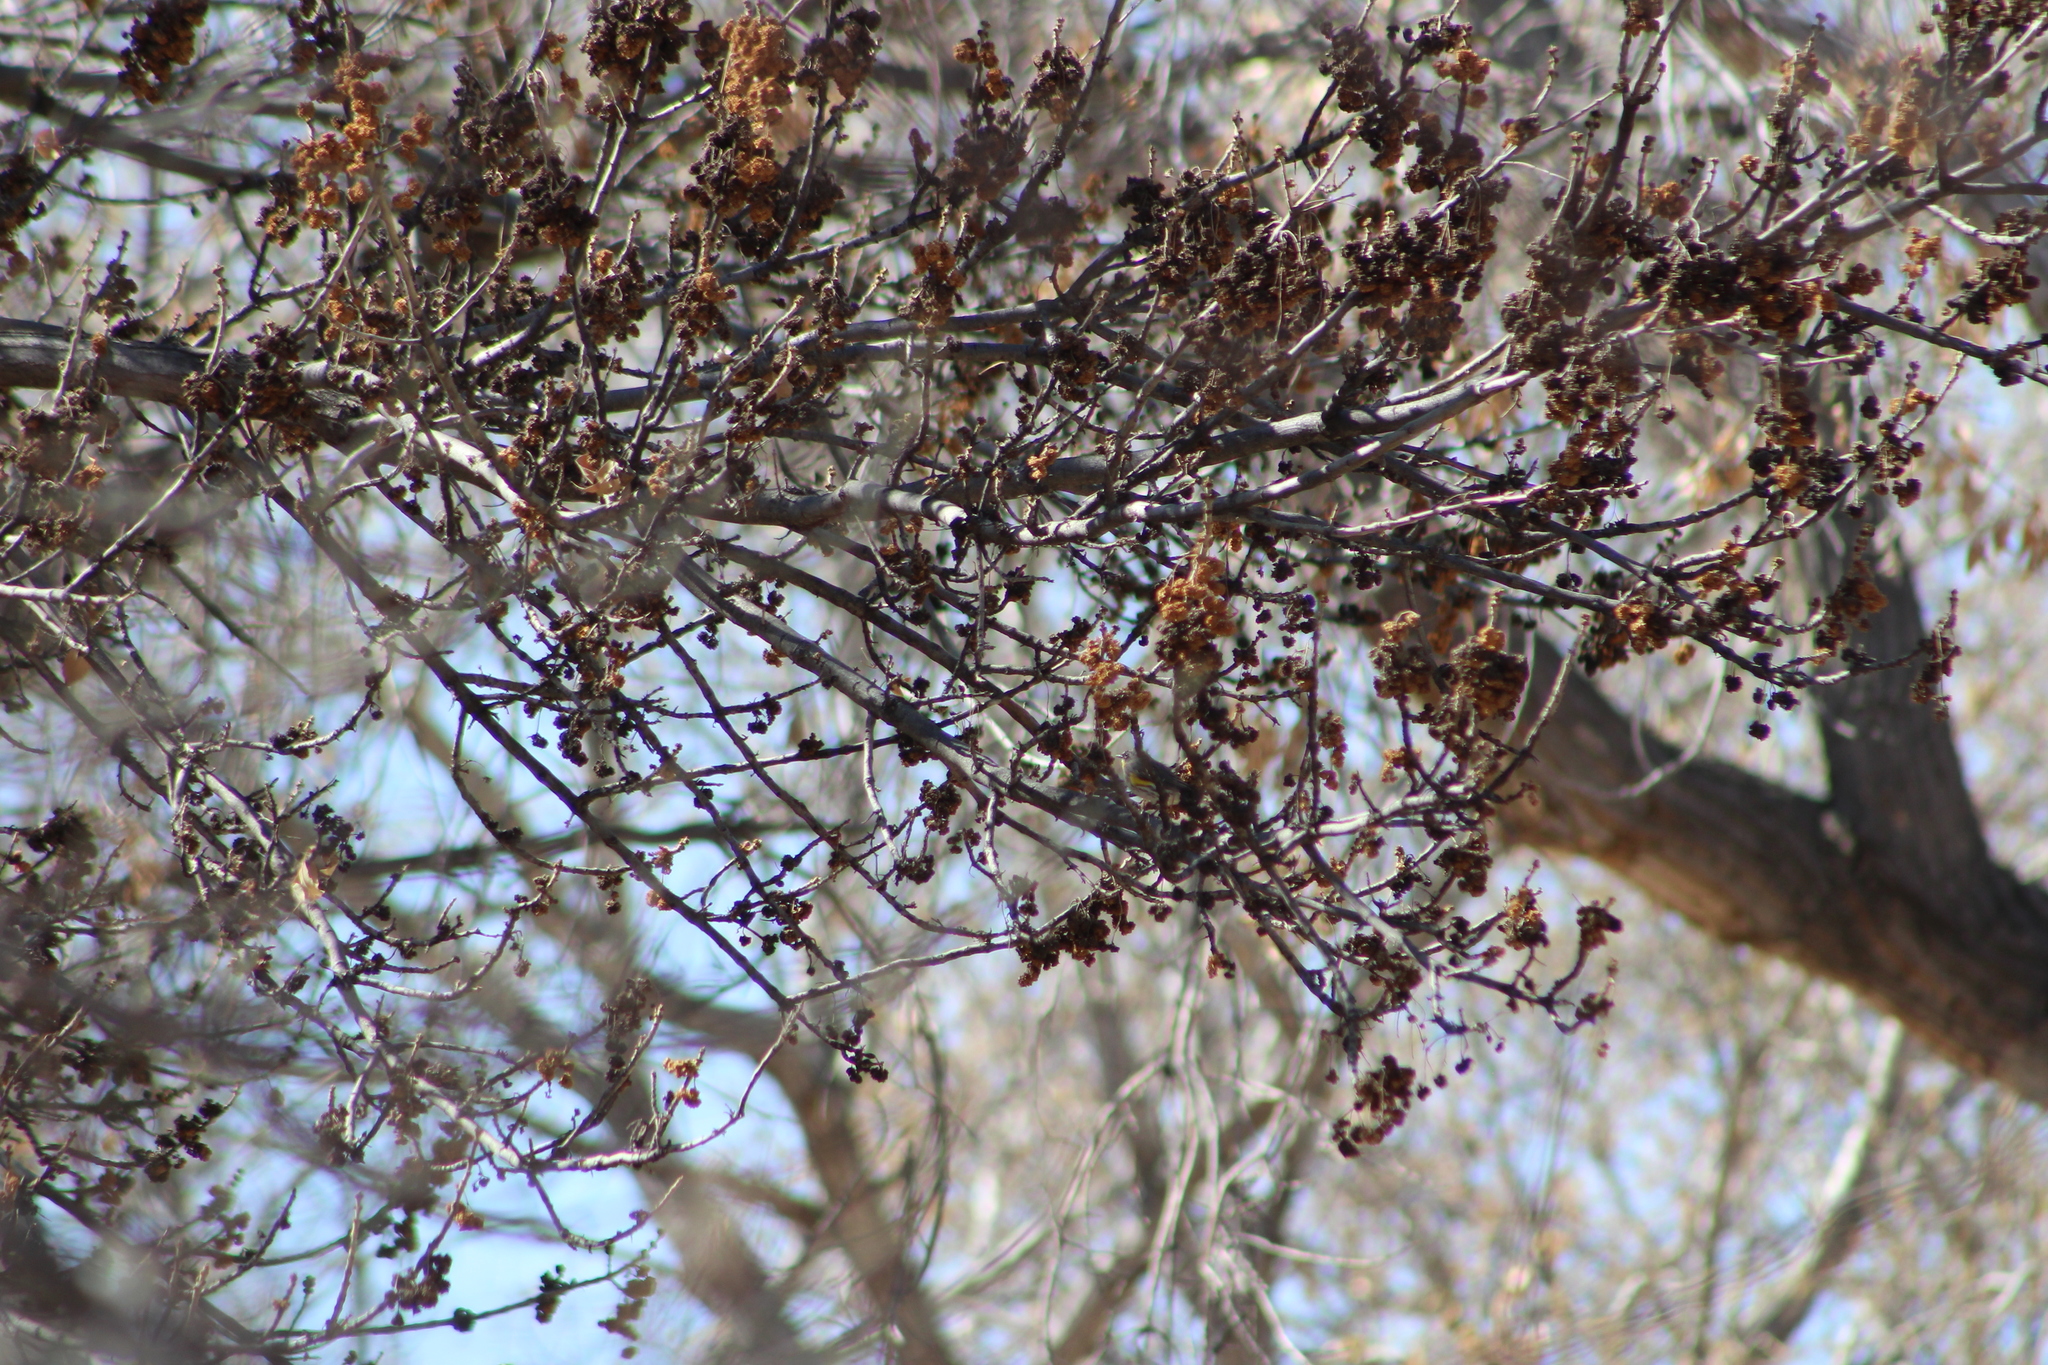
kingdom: Animalia
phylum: Chordata
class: Aves
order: Passeriformes
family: Parulidae
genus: Setophaga
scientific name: Setophaga coronata
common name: Myrtle warbler
